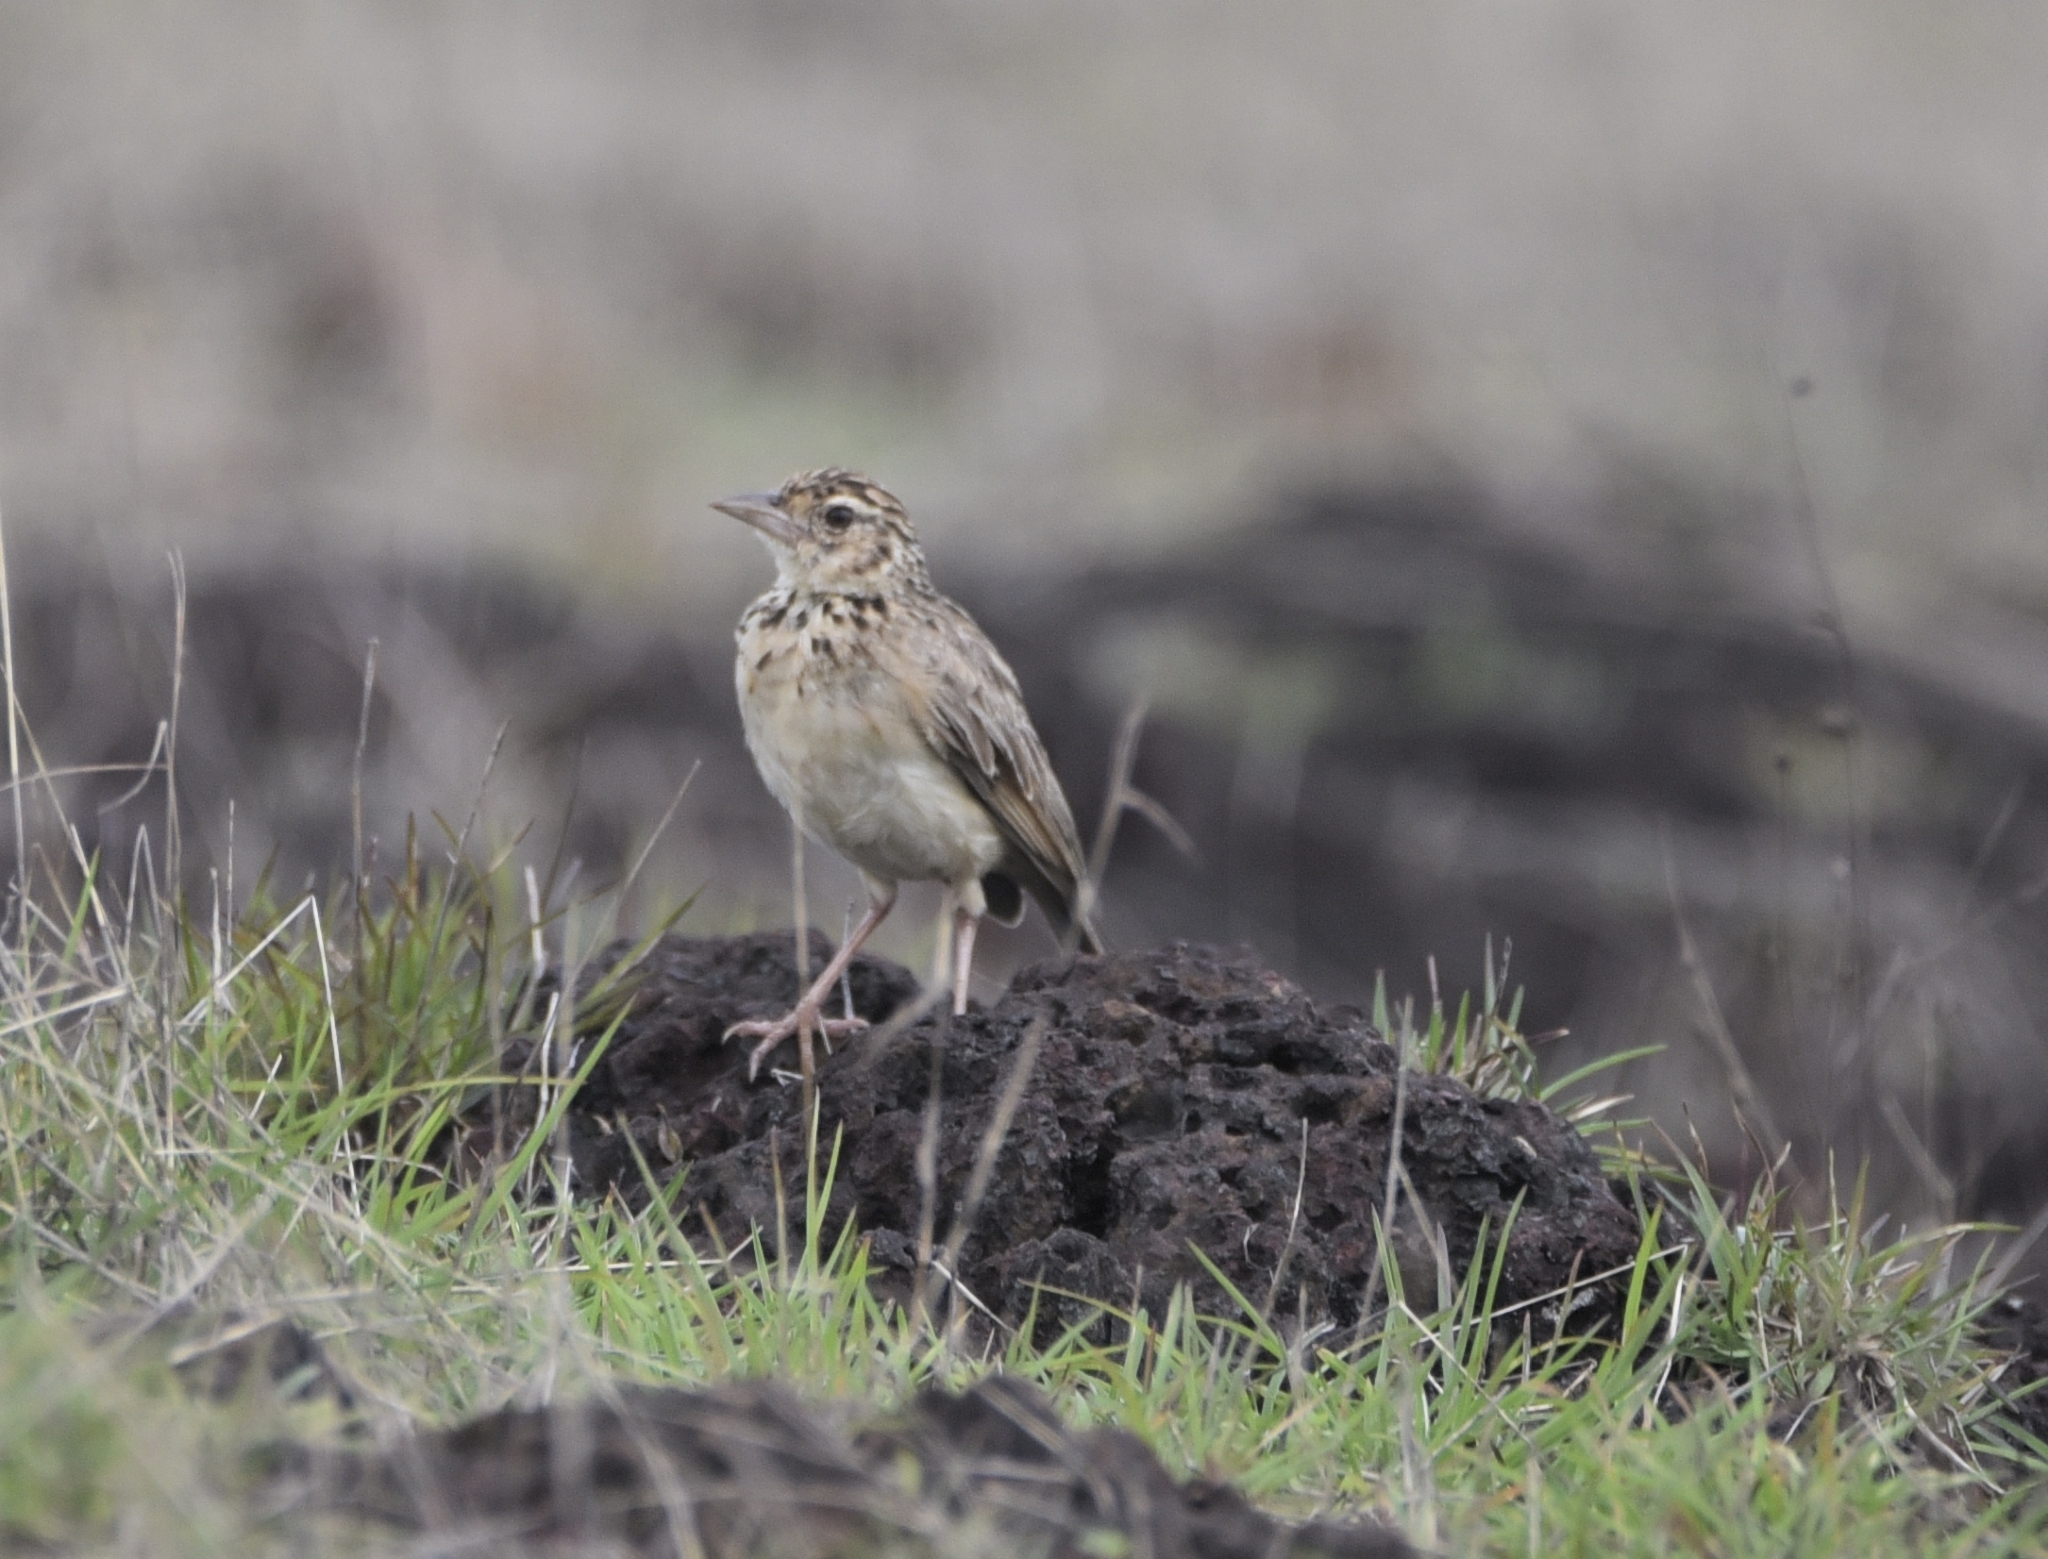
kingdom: Animalia
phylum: Chordata
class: Aves
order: Passeriformes
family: Alaudidae
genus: Mirafra
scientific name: Mirafra affinis
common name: Jerdon's bushlark
